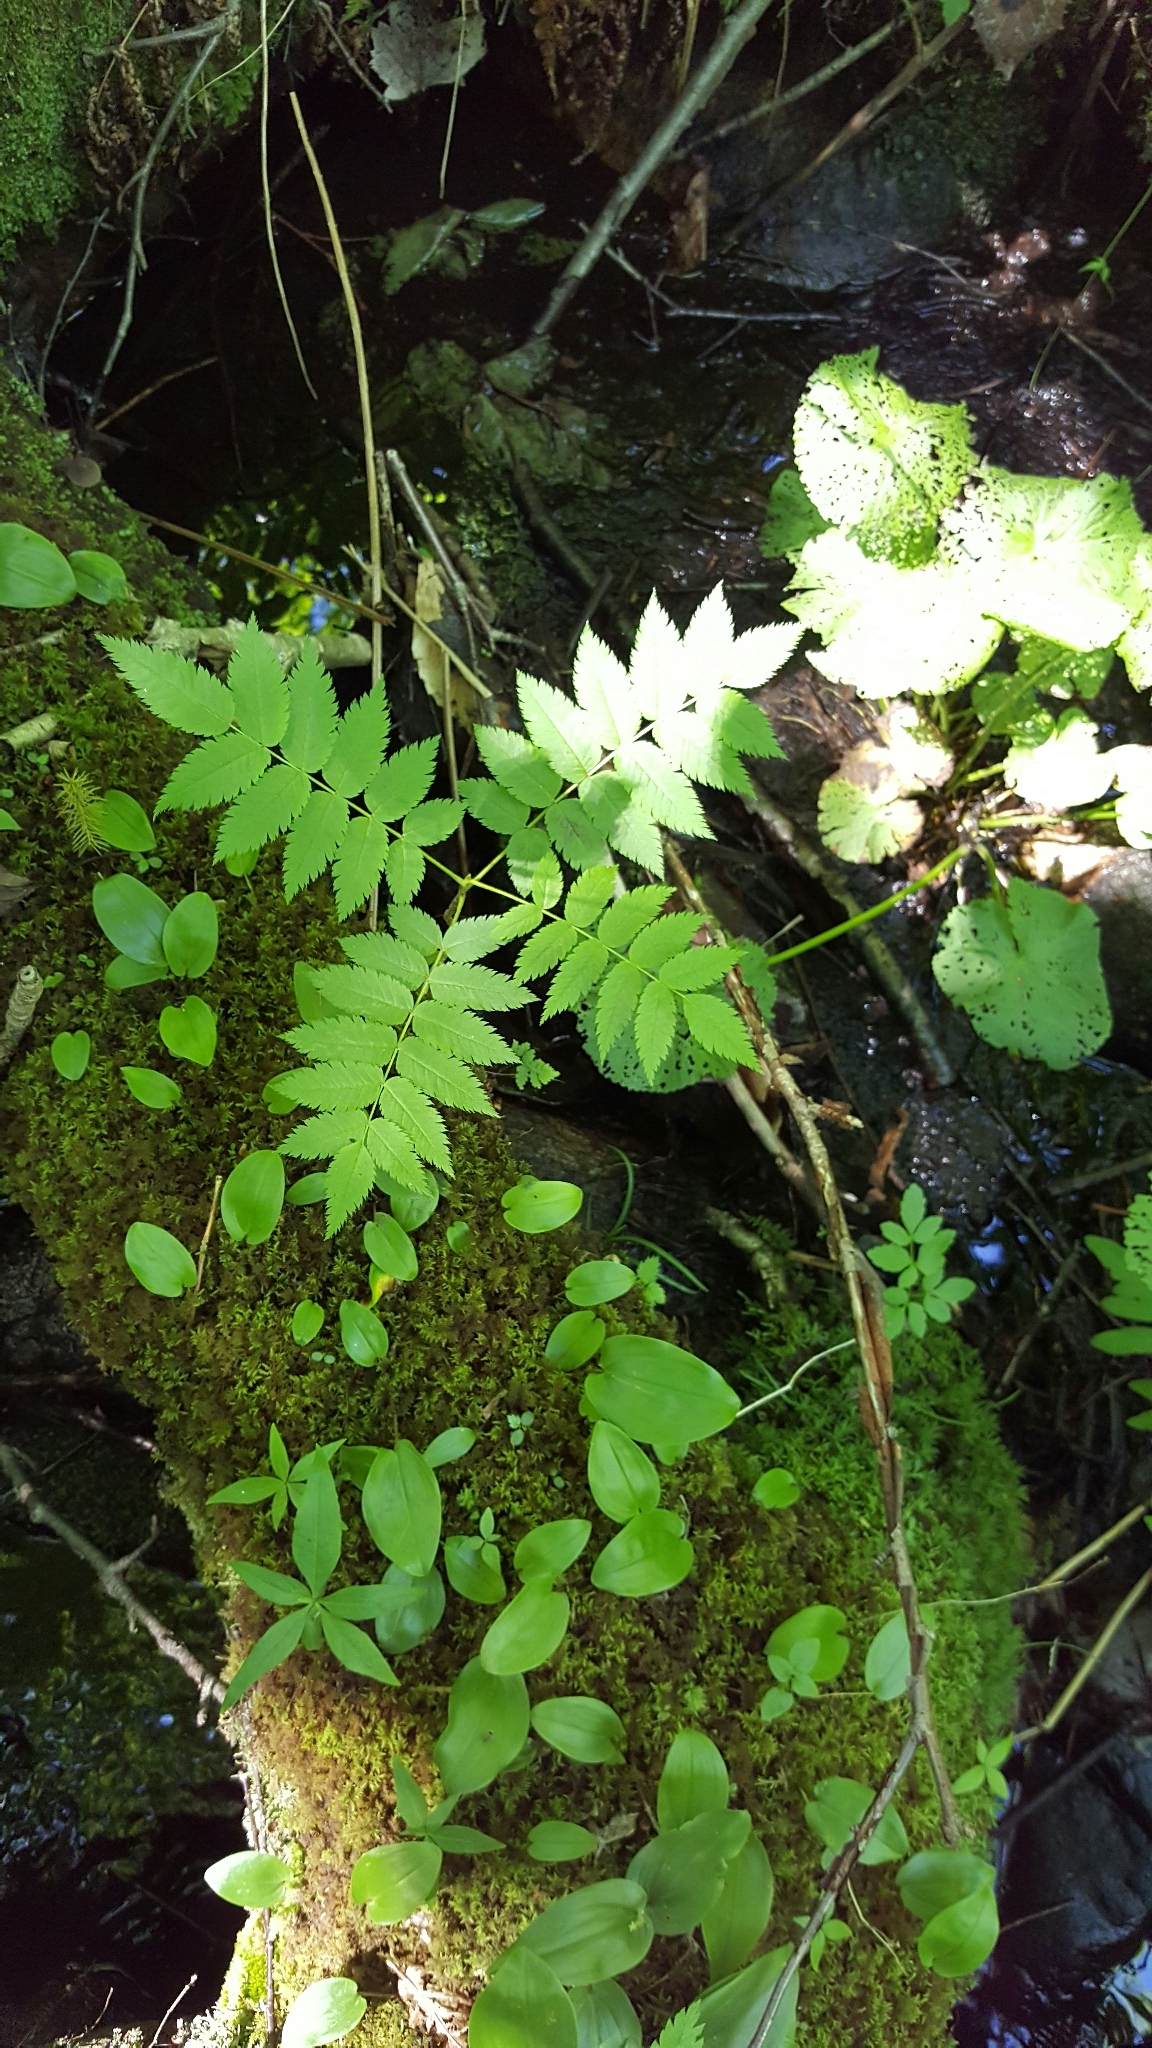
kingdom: Plantae
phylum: Tracheophyta
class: Magnoliopsida
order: Rosales
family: Rosaceae
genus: Sorbus
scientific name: Sorbus americana
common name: American mountain-ash
